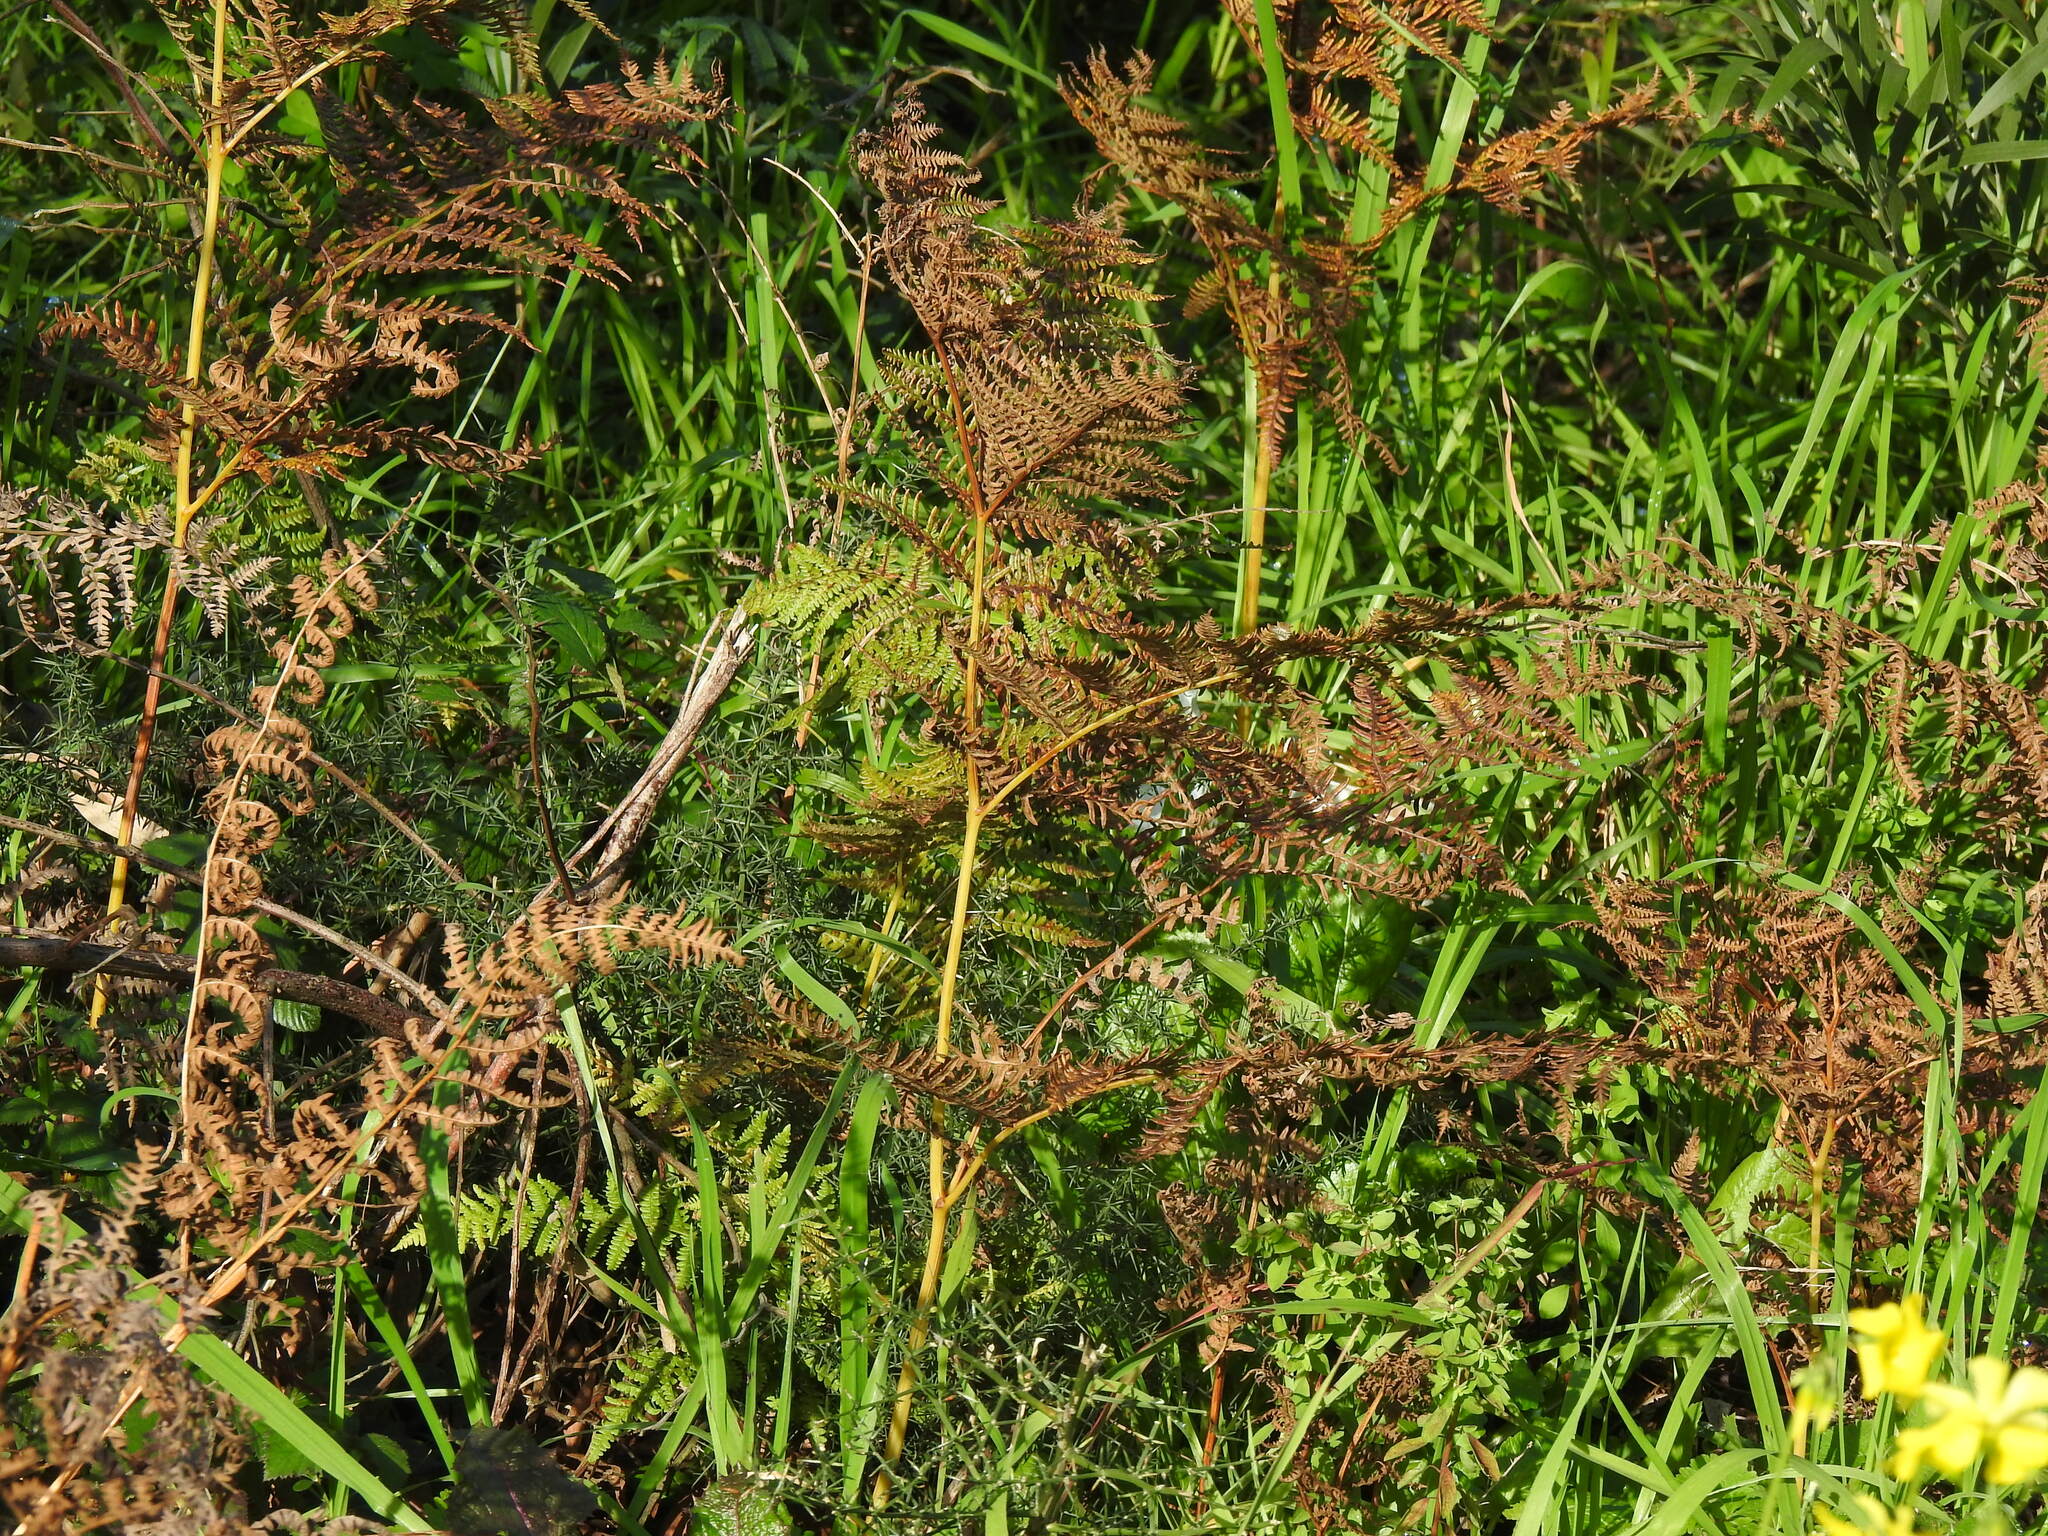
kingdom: Plantae
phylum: Tracheophyta
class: Polypodiopsida
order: Polypodiales
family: Dennstaedtiaceae
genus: Pteridium
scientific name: Pteridium aquilinum
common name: Bracken
